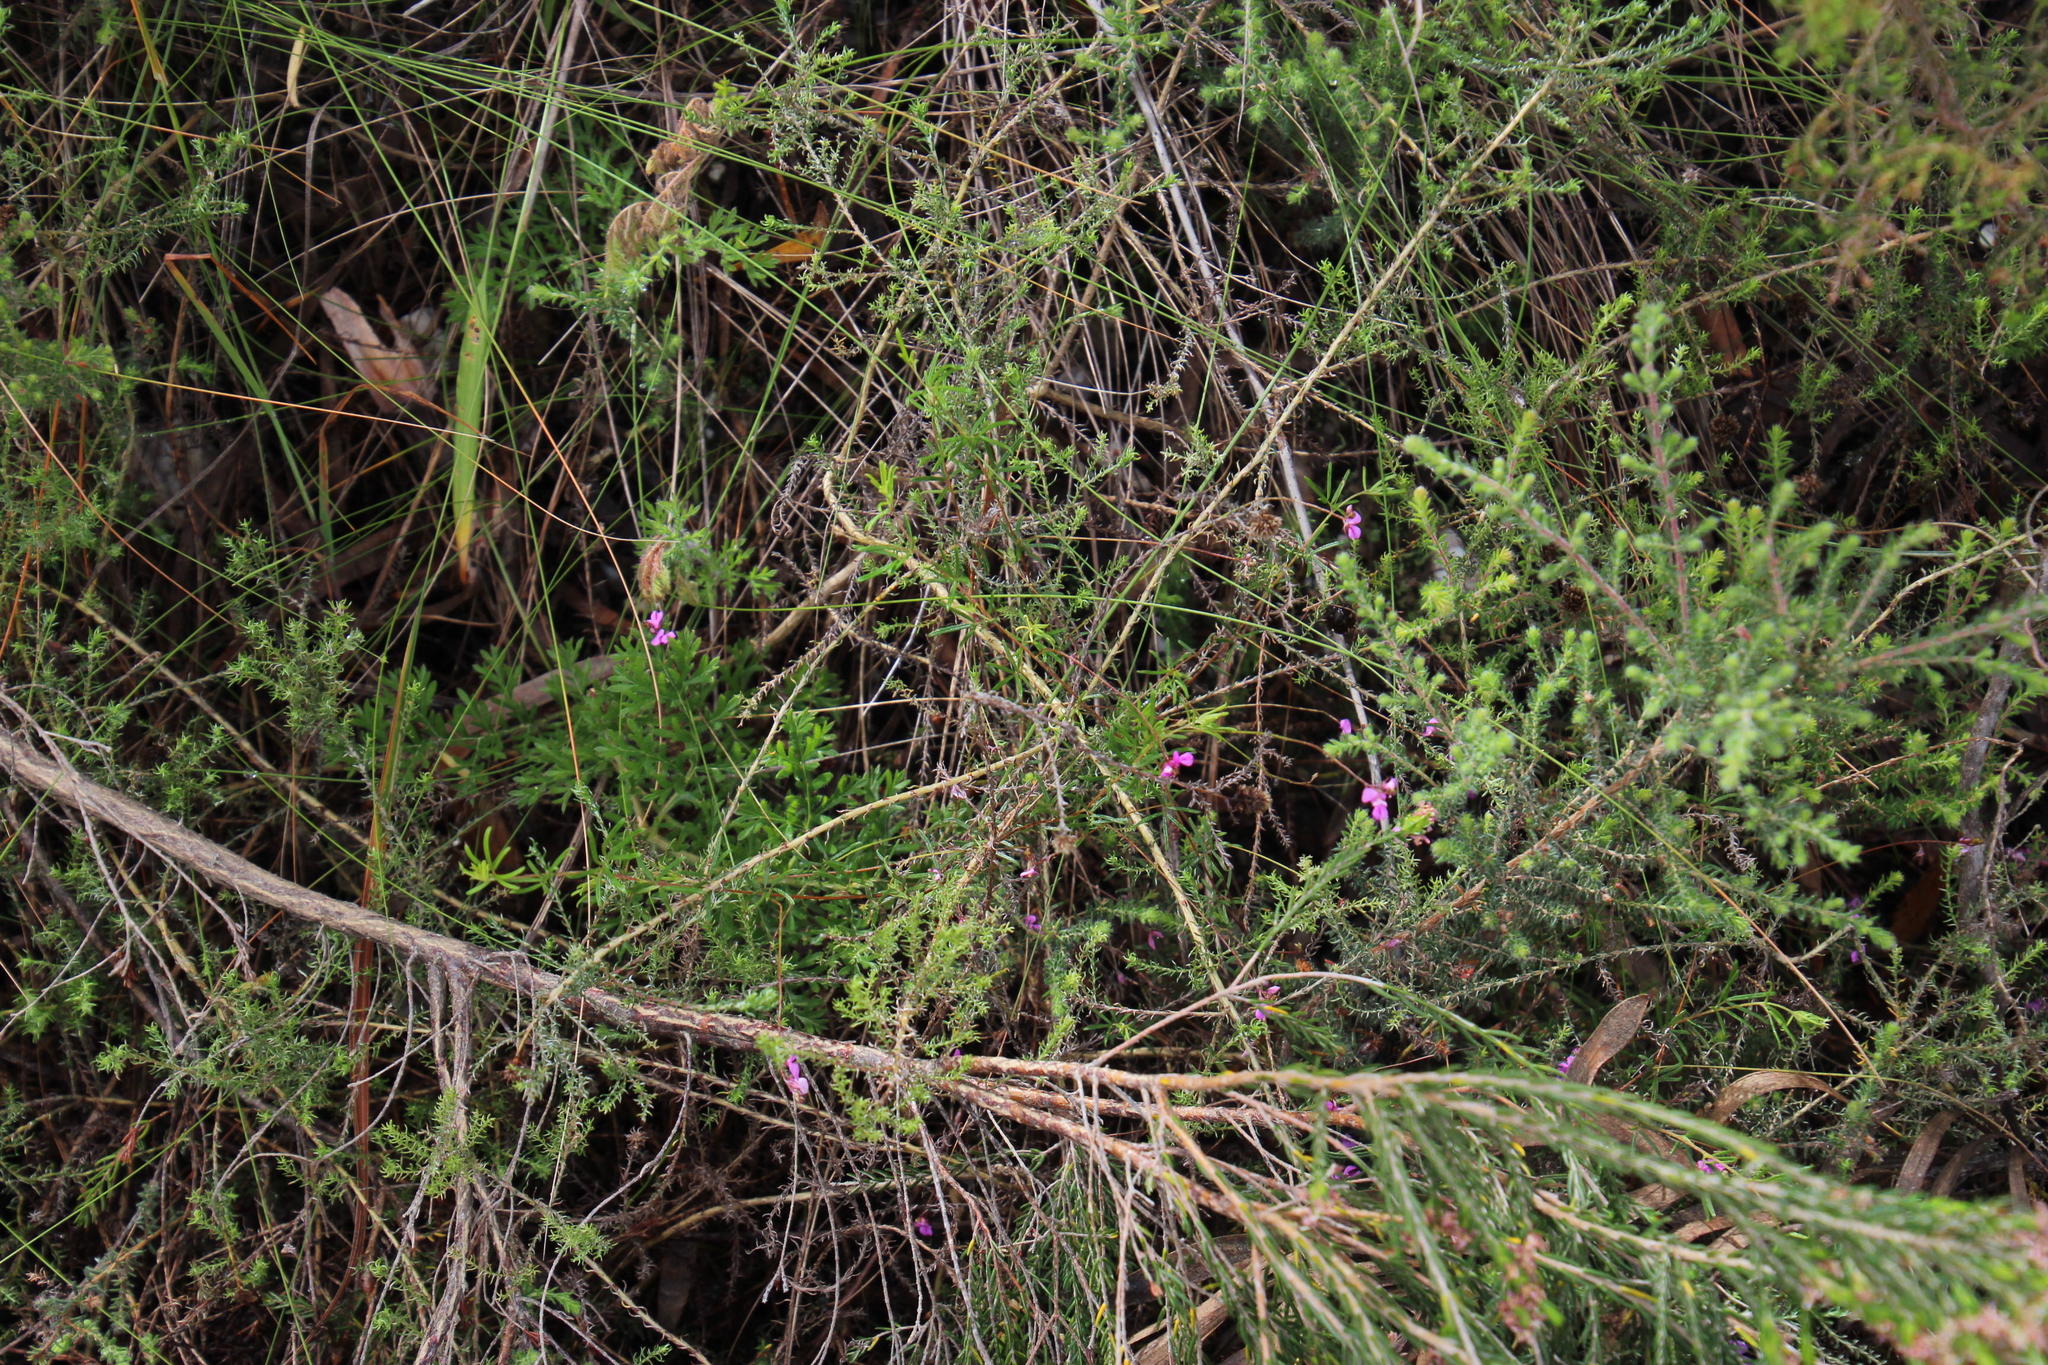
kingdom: Plantae
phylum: Tracheophyta
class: Magnoliopsida
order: Fabales
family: Fabaceae
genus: Indigofera
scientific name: Indigofera angustifolia
